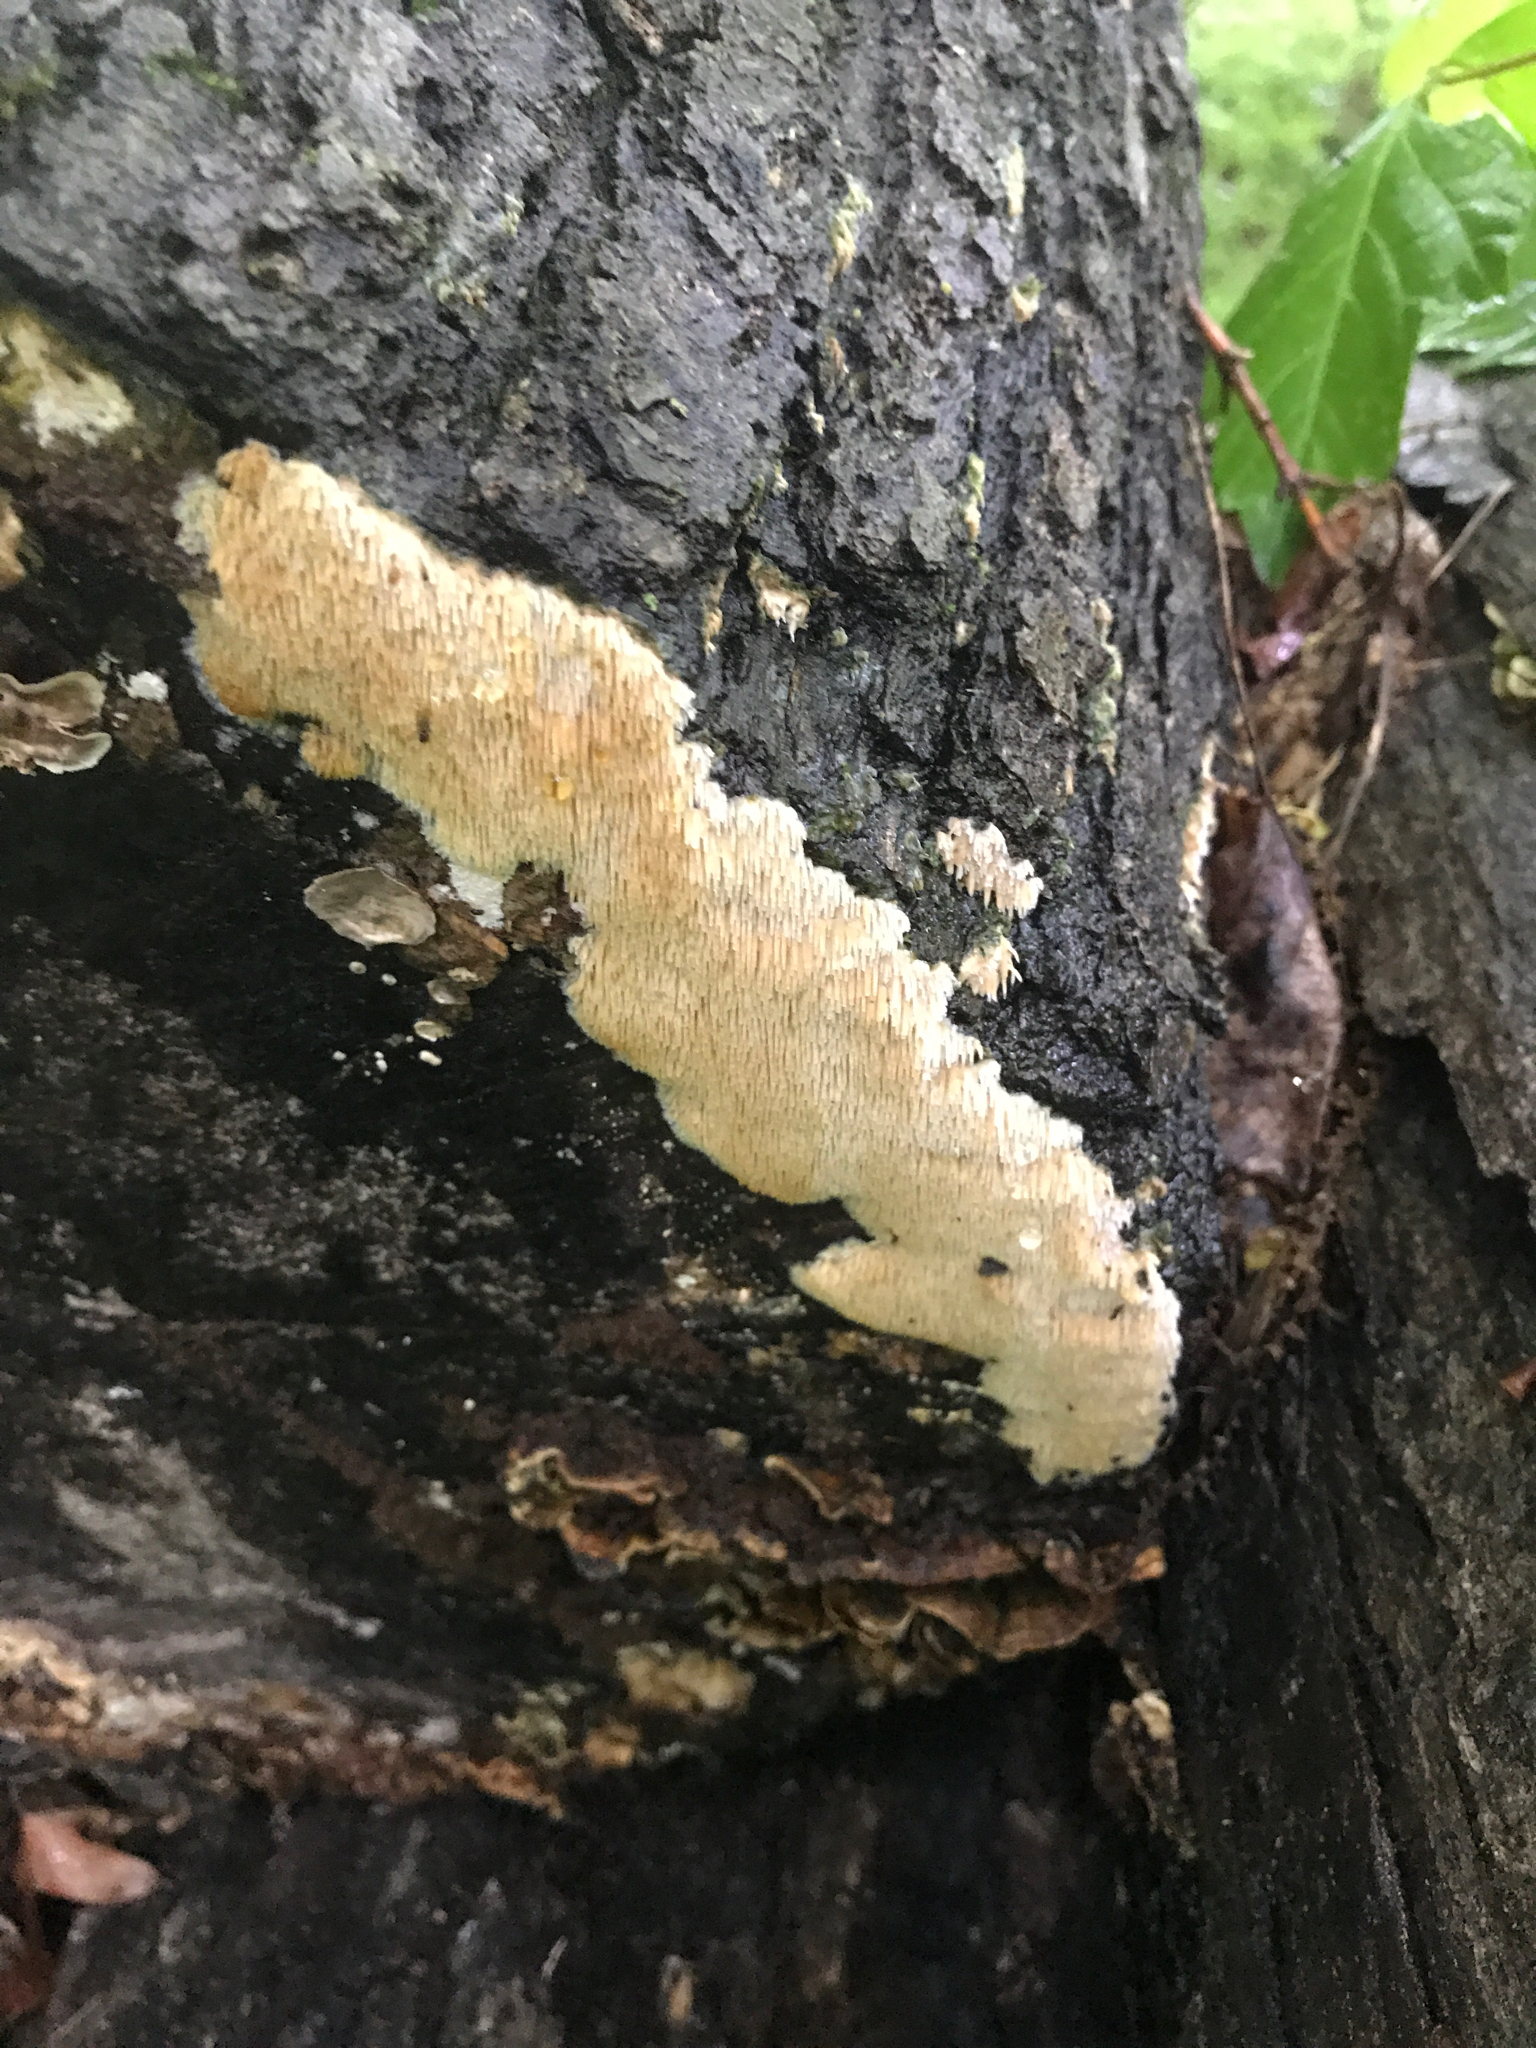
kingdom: Fungi
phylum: Basidiomycota
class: Agaricomycetes
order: Agaricales
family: Radulomycetaceae
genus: Radulomyces
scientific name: Radulomyces copelandii
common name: Asian beauty
